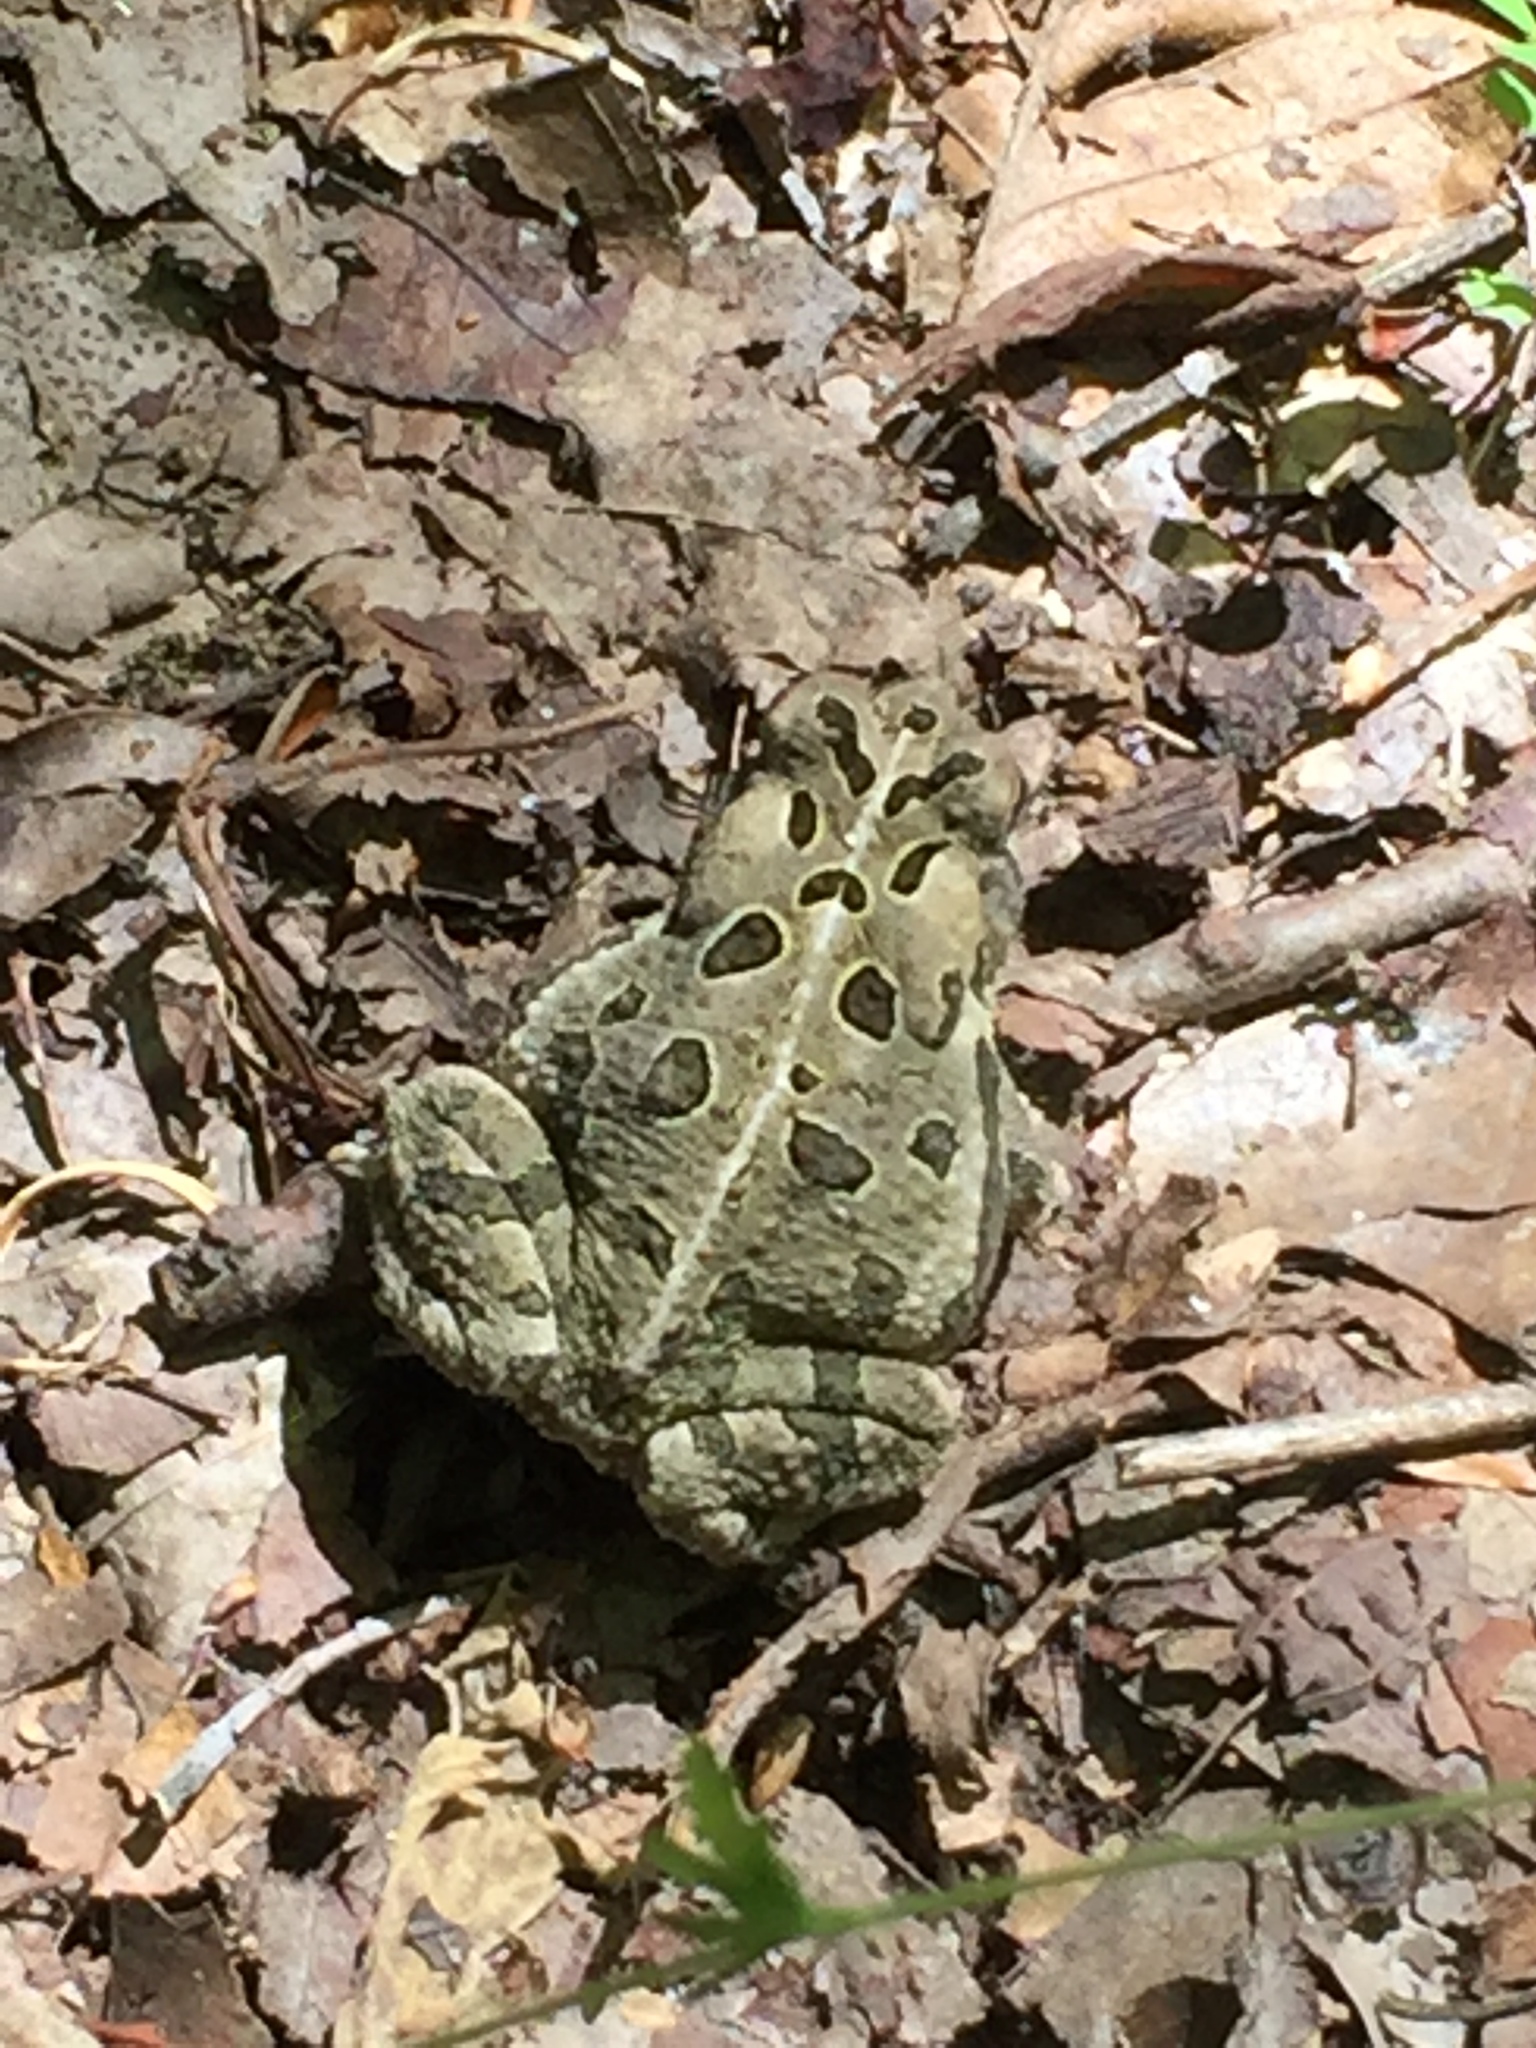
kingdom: Animalia
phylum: Chordata
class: Amphibia
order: Anura
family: Bufonidae
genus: Anaxyrus
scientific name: Anaxyrus fowleri
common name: Fowler's toad
